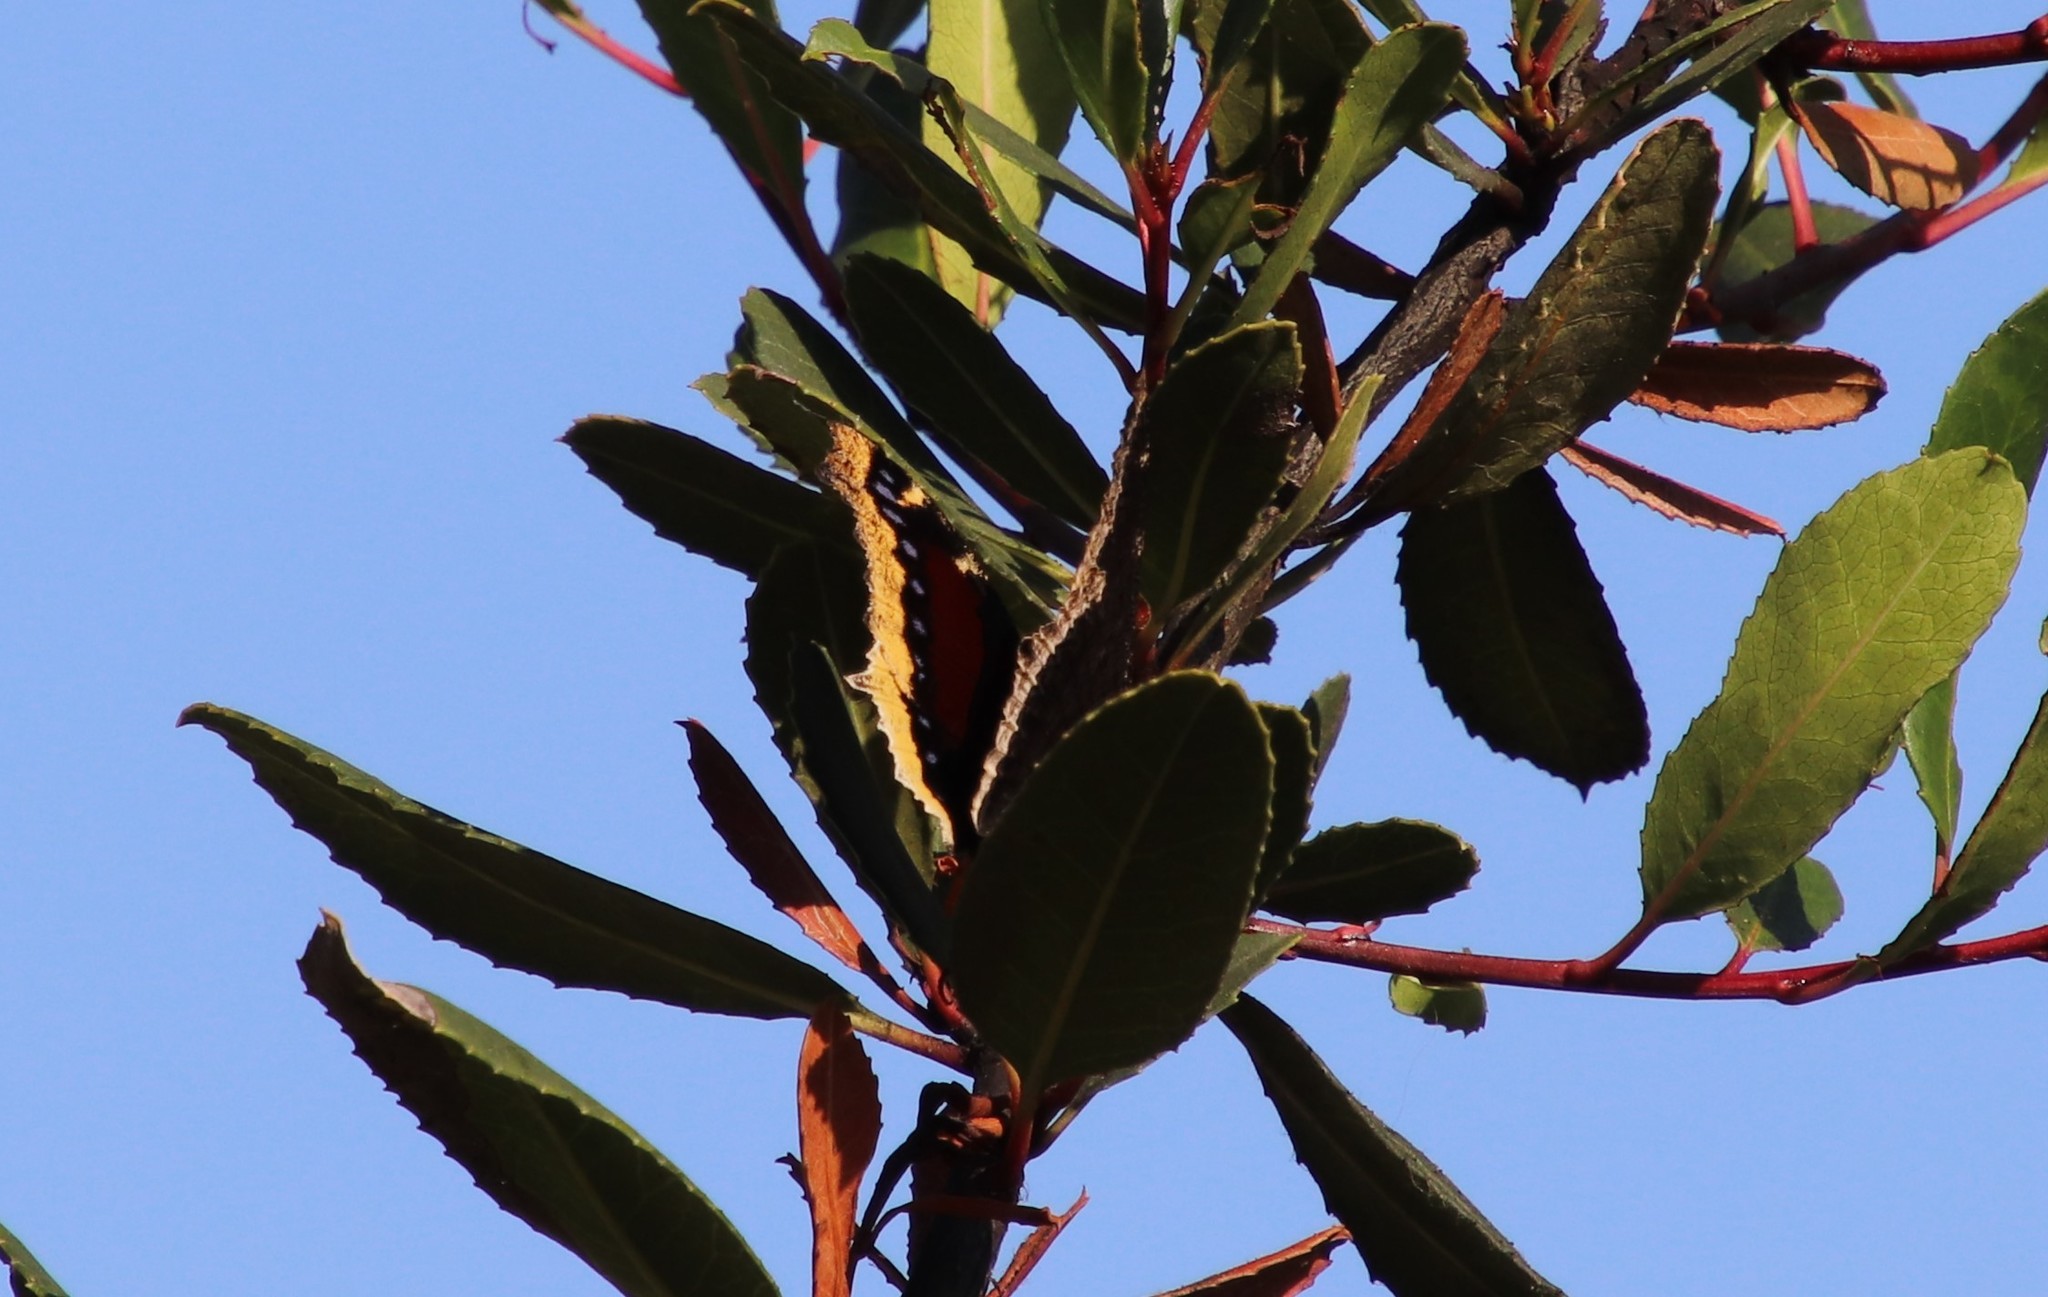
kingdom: Animalia
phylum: Arthropoda
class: Insecta
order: Lepidoptera
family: Nymphalidae
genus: Nymphalis
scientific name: Nymphalis antiopa
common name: Camberwell beauty
